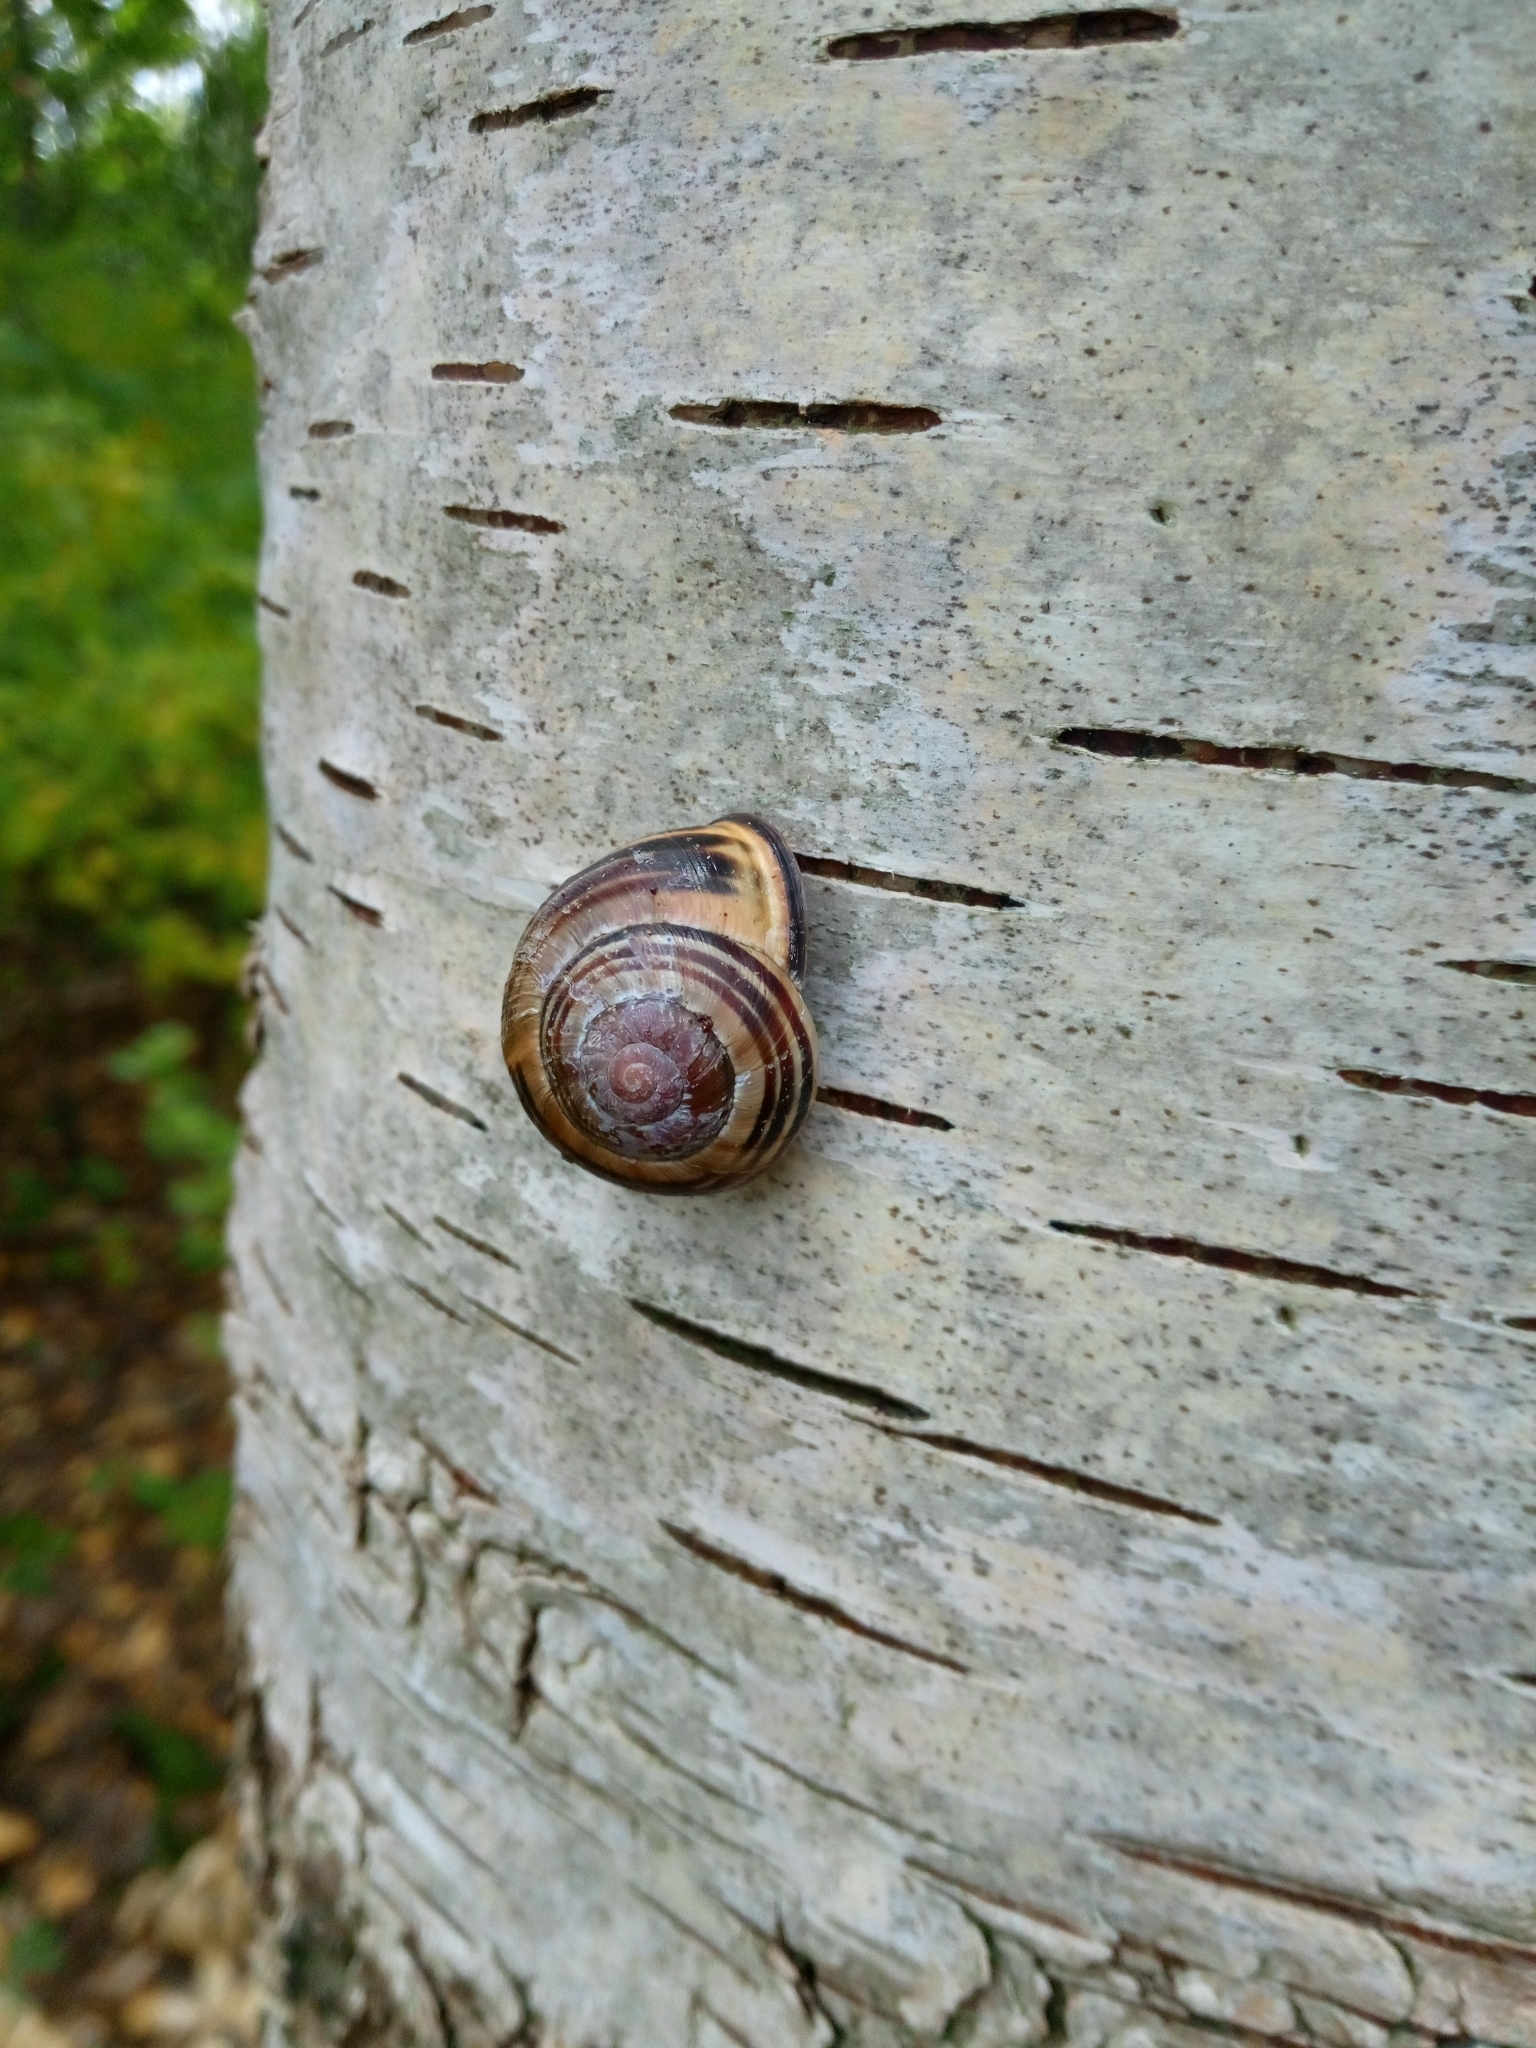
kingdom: Animalia
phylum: Mollusca
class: Gastropoda
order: Stylommatophora
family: Helicidae
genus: Cepaea
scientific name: Cepaea nemoralis
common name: Grovesnail
